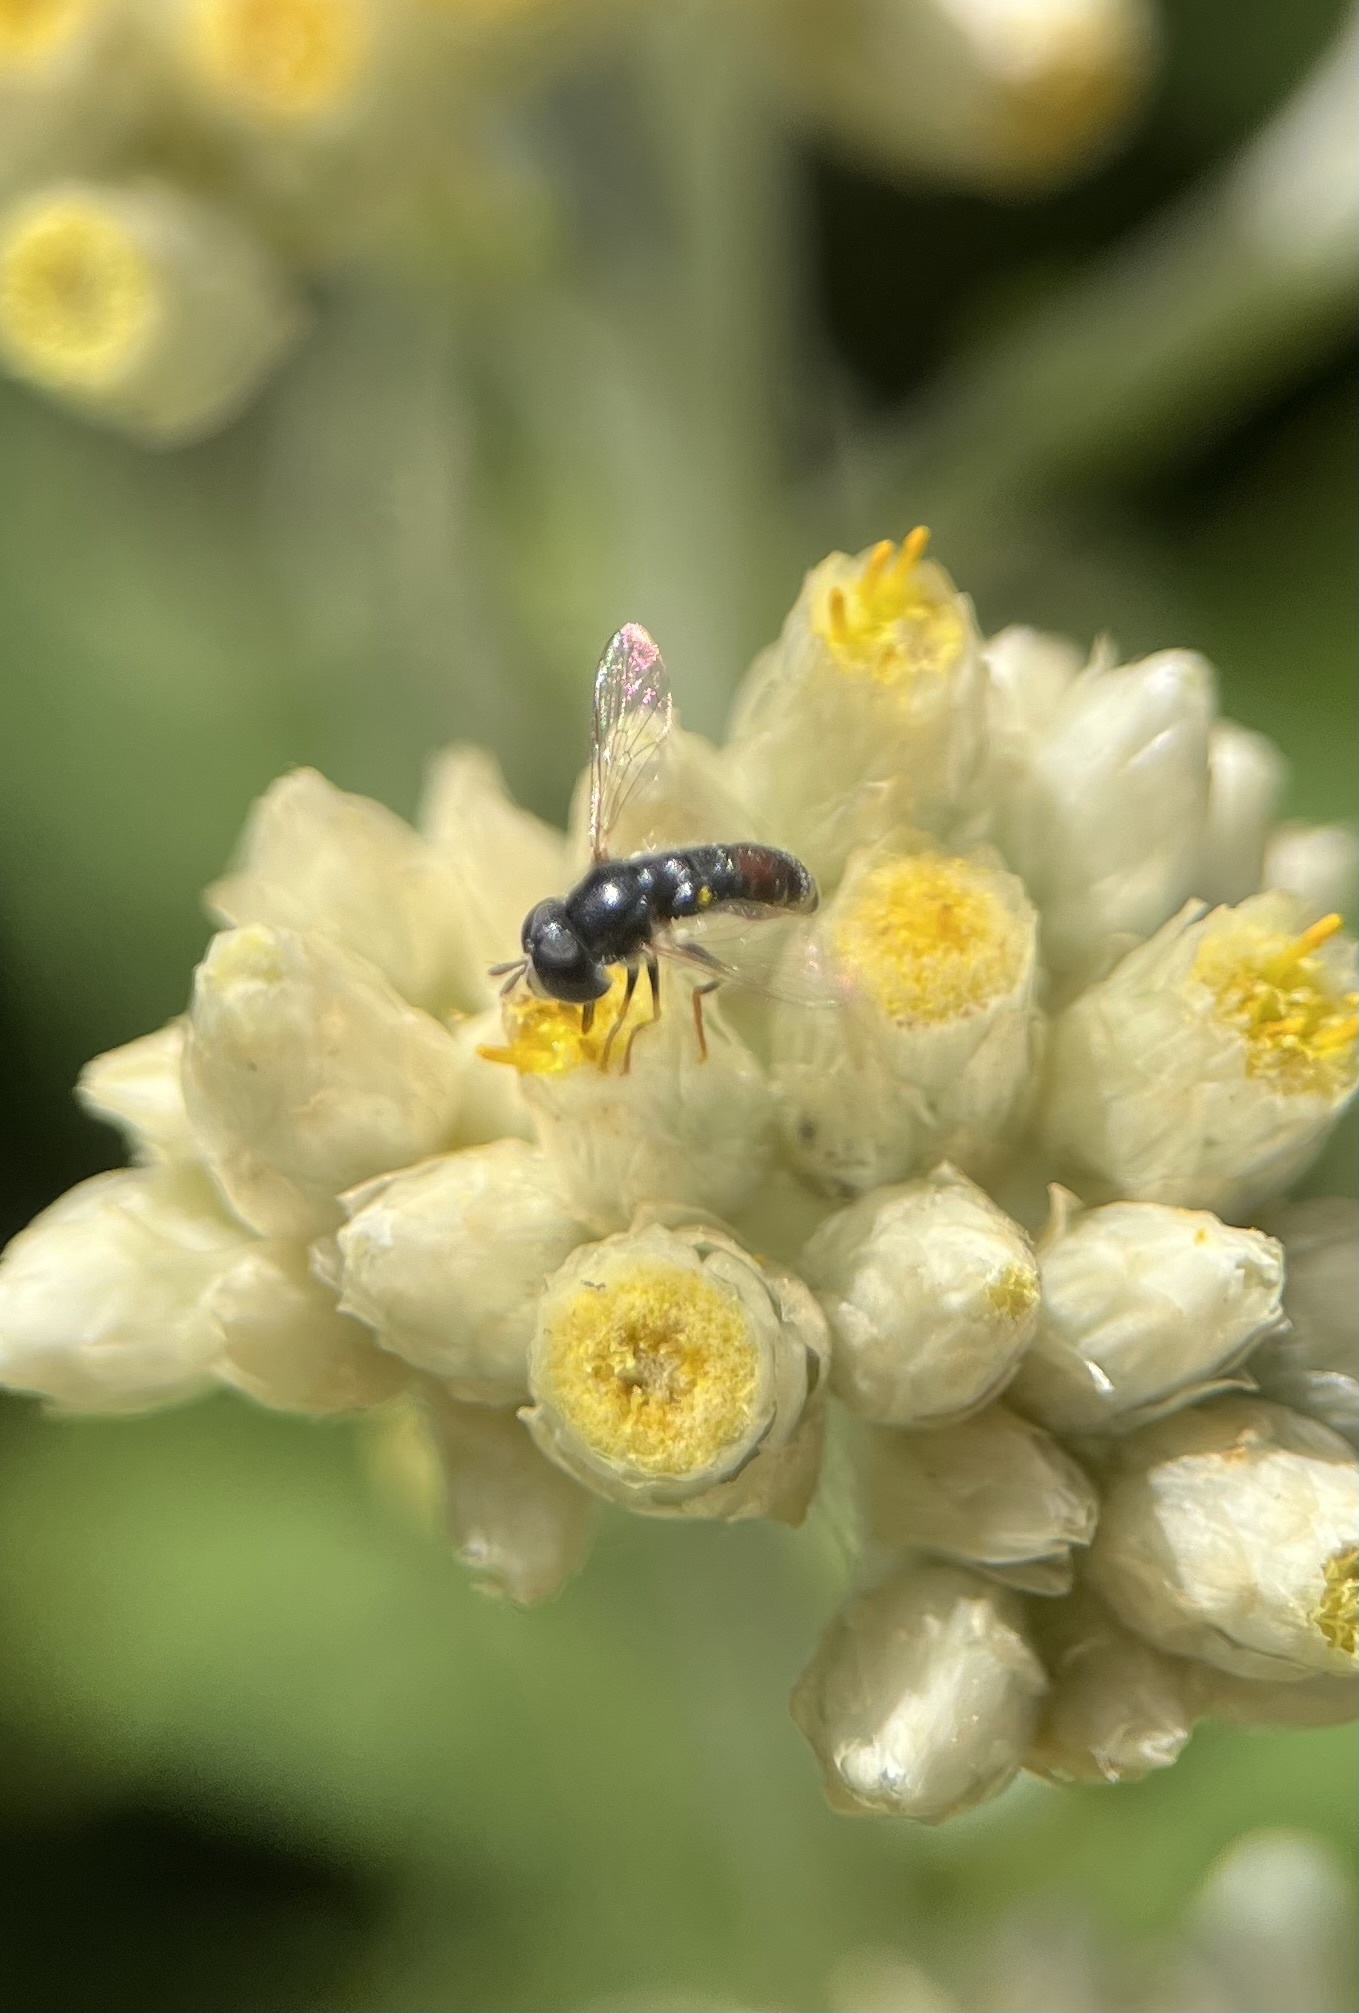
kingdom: Animalia
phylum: Arthropoda
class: Insecta
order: Diptera
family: Syrphidae
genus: Paragus
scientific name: Paragus haemorrhous
